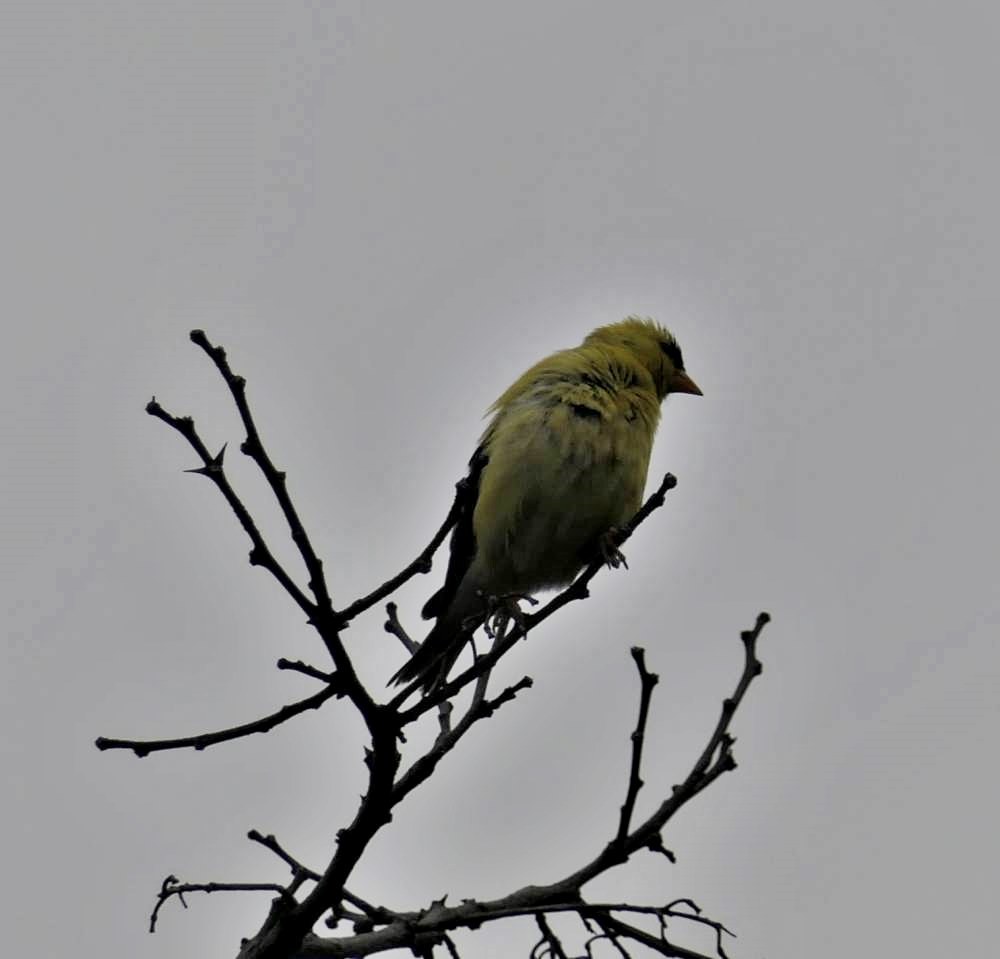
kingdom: Animalia
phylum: Chordata
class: Aves
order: Passeriformes
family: Fringillidae
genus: Spinus
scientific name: Spinus tristis
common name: American goldfinch
